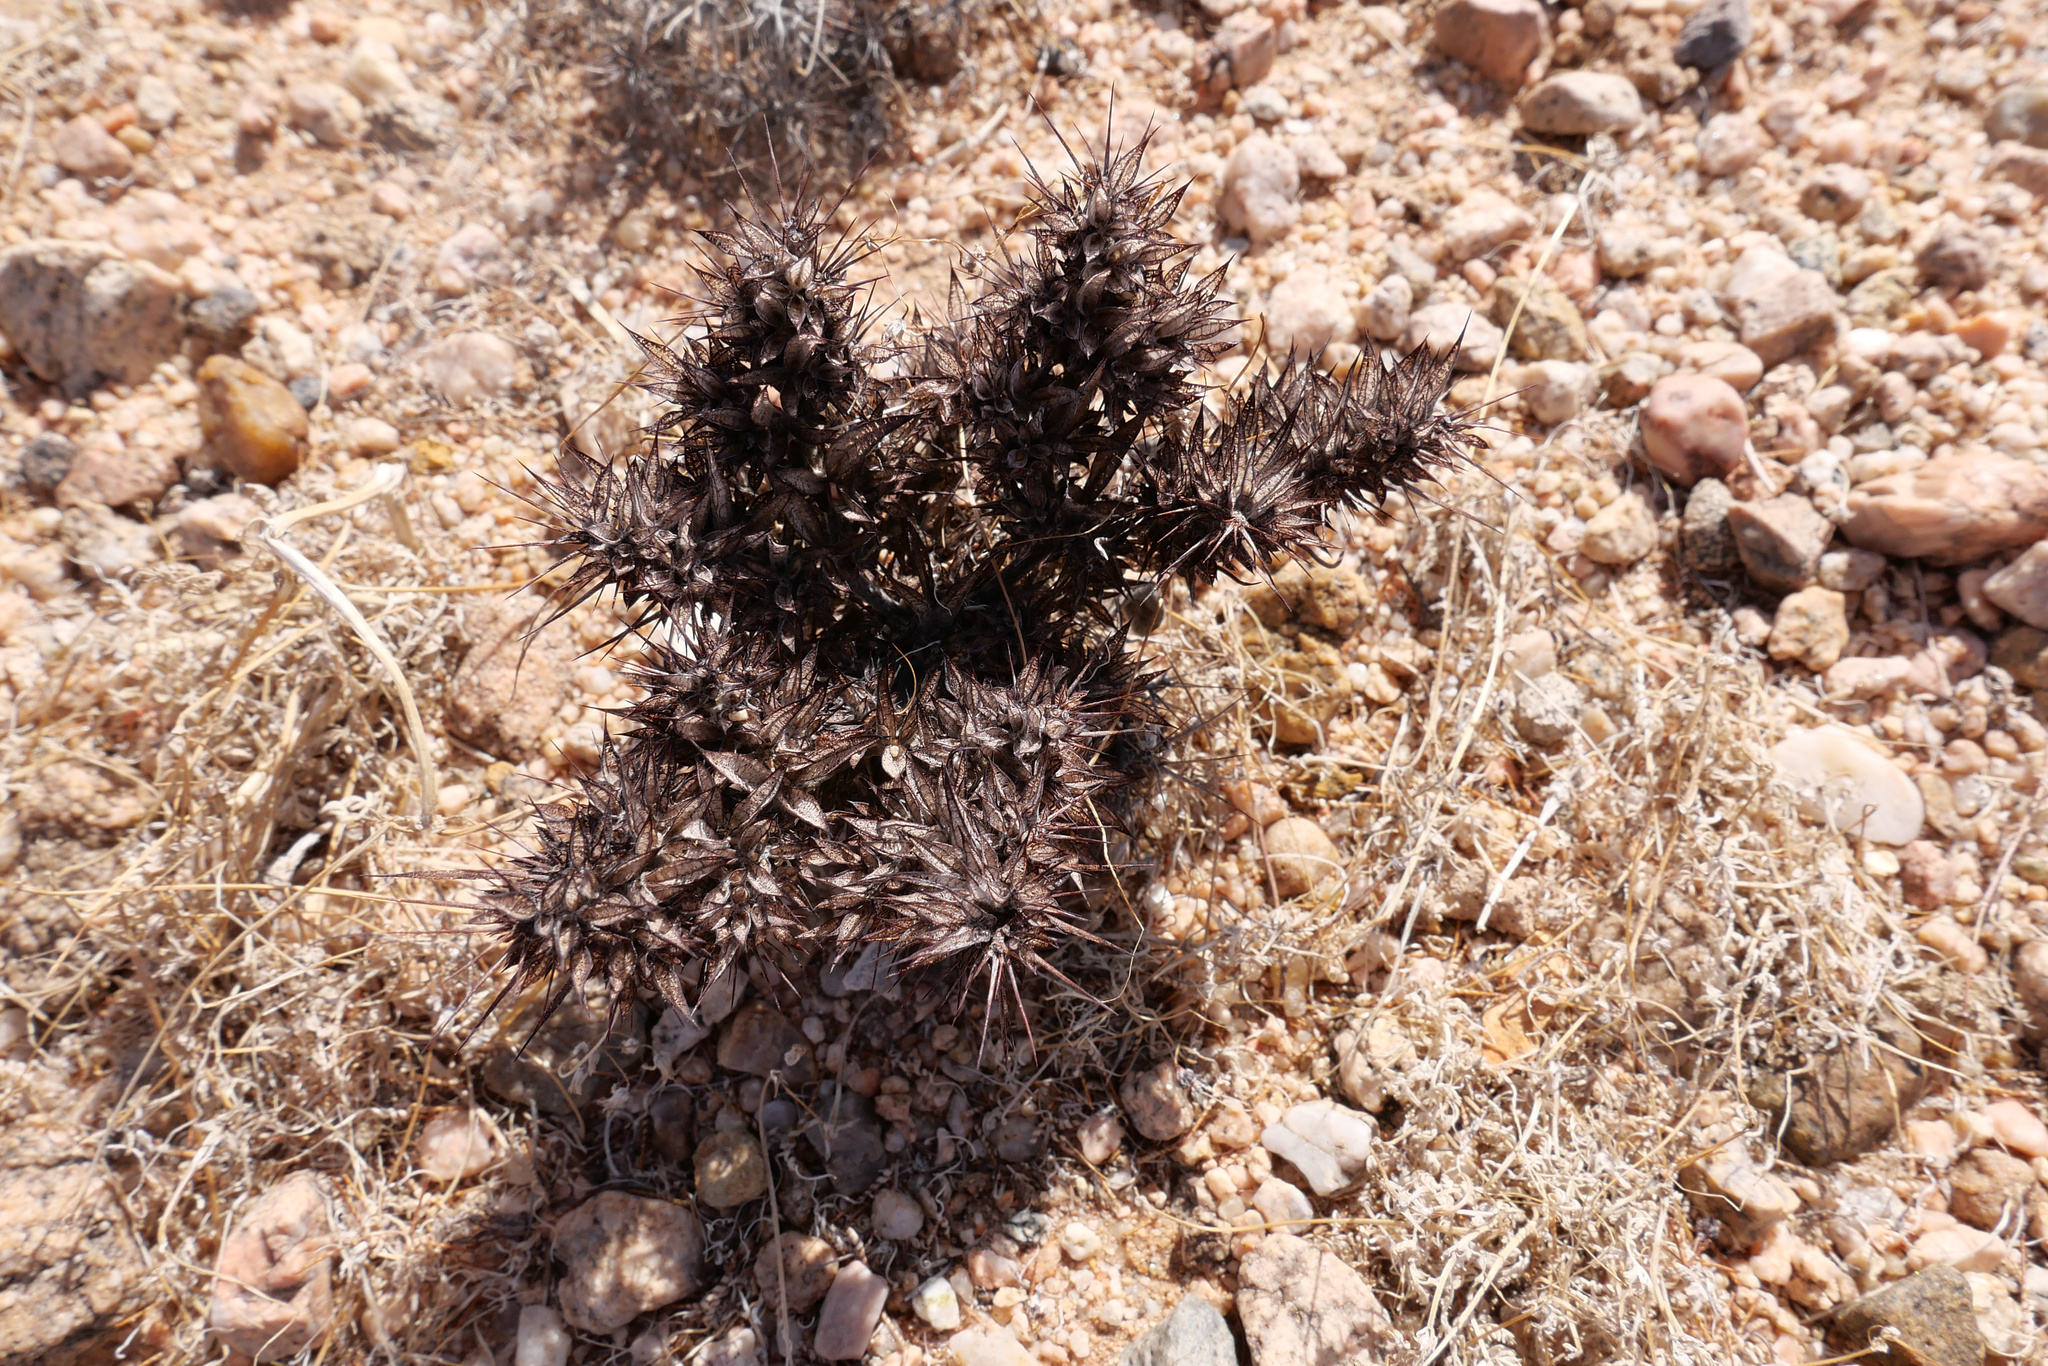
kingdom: Plantae
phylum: Tracheophyta
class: Magnoliopsida
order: Caryophyllales
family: Polygonaceae
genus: Chorizanthe
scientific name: Chorizanthe rigida
